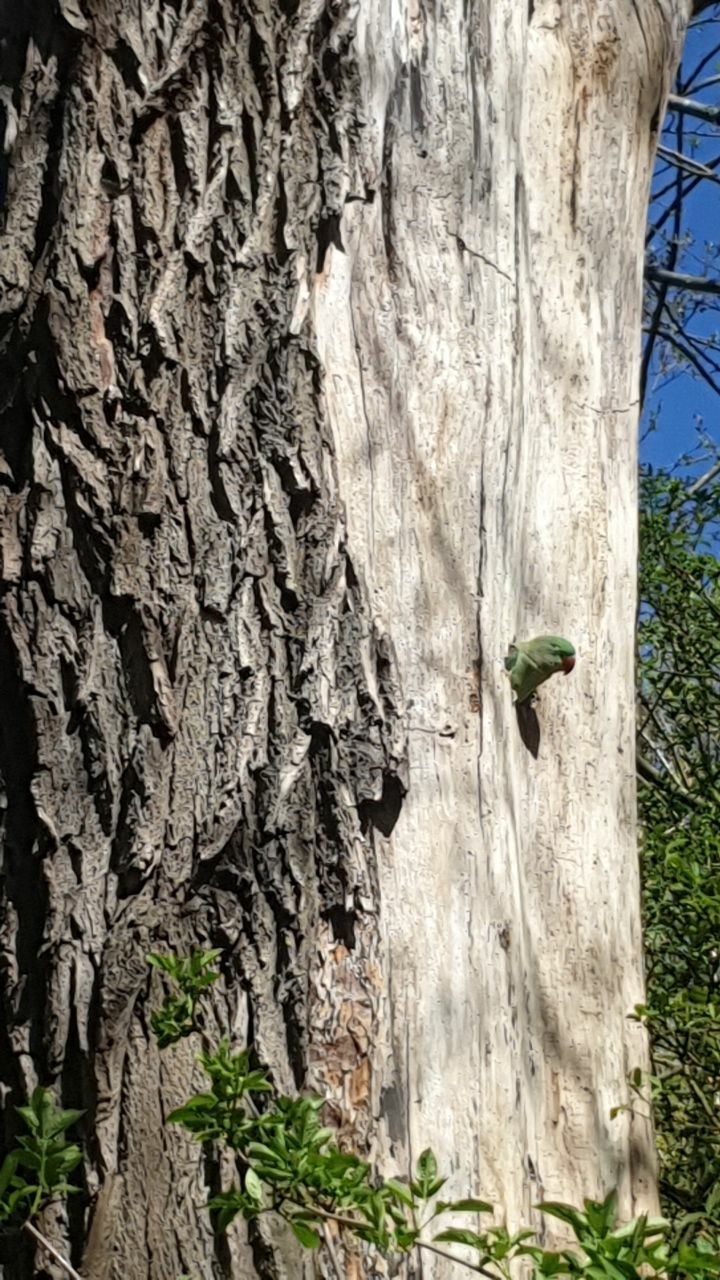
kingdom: Animalia
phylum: Chordata
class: Aves
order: Psittaciformes
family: Psittacidae
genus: Psittacula
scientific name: Psittacula krameri
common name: Rose-ringed parakeet
